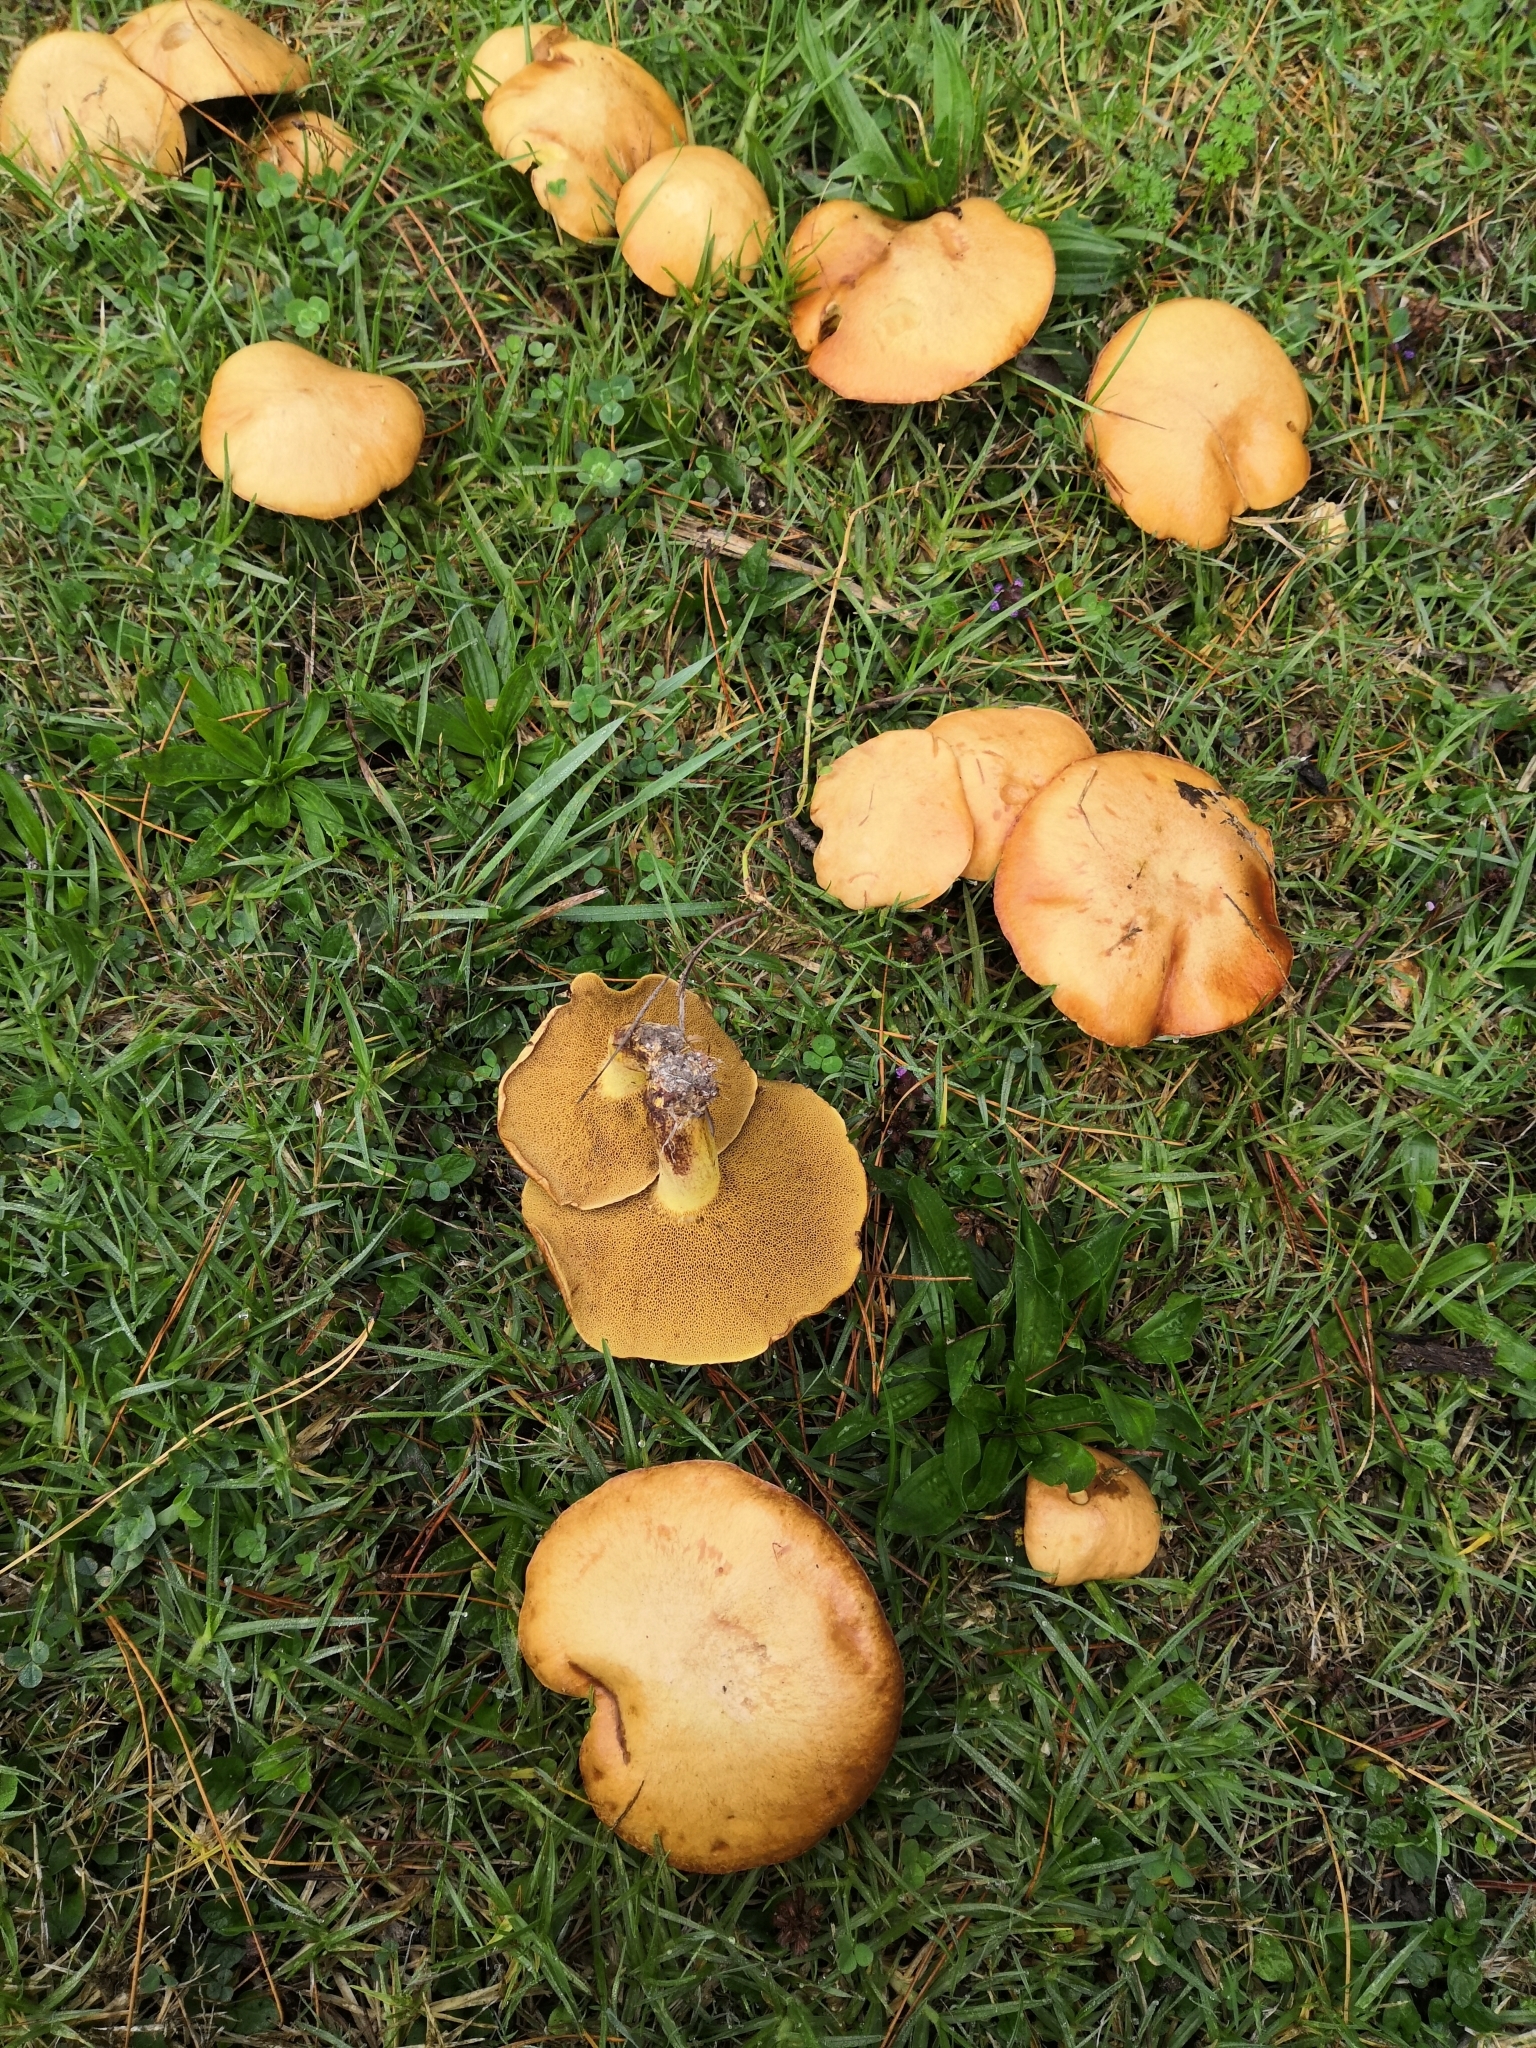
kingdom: Fungi
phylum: Basidiomycota
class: Agaricomycetes
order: Boletales
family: Suillaceae
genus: Suillus
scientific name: Suillus bovinus
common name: Bovine bolete
